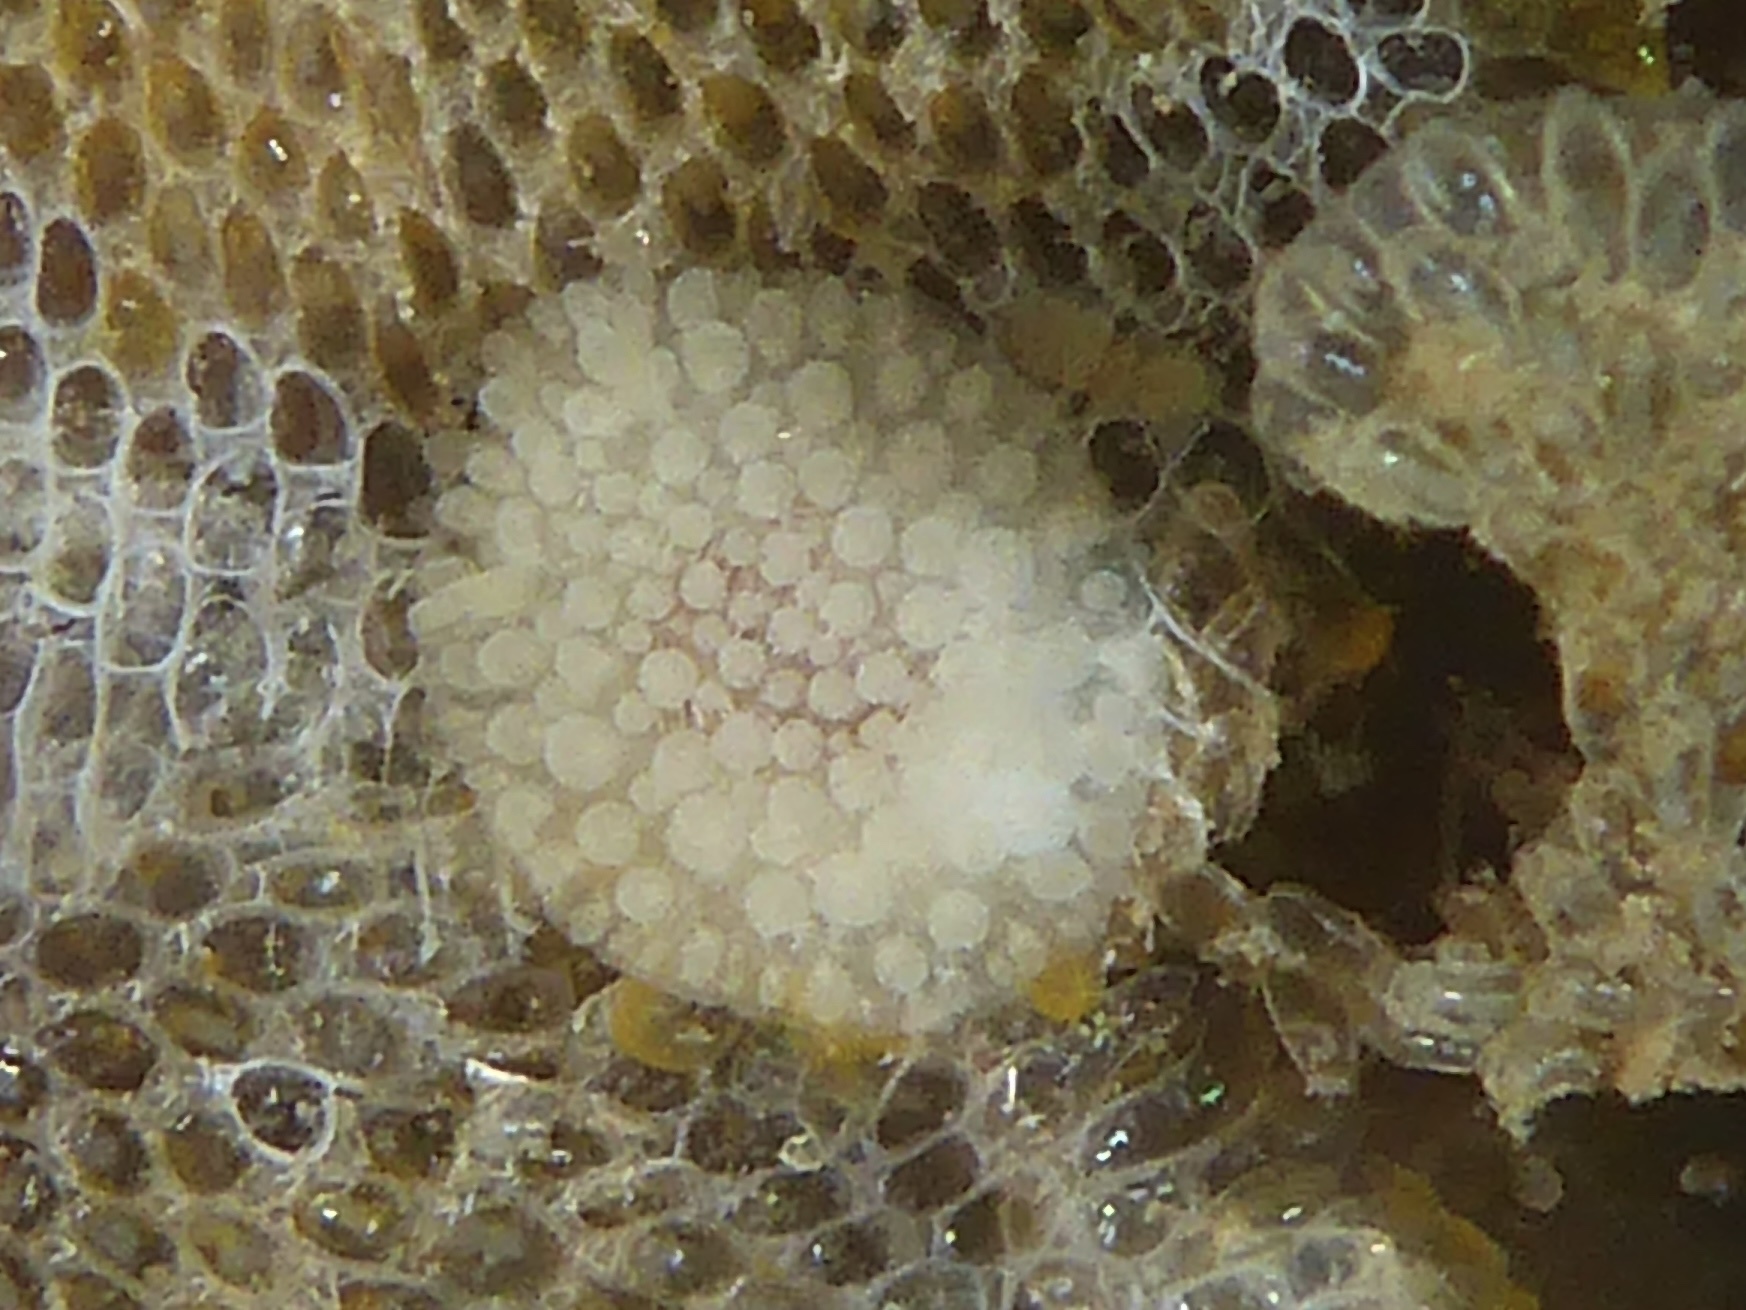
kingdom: Animalia
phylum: Mollusca
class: Gastropoda
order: Nudibranchia
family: Onchidorididae
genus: Atalodoris
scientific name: Atalodoris jannae
